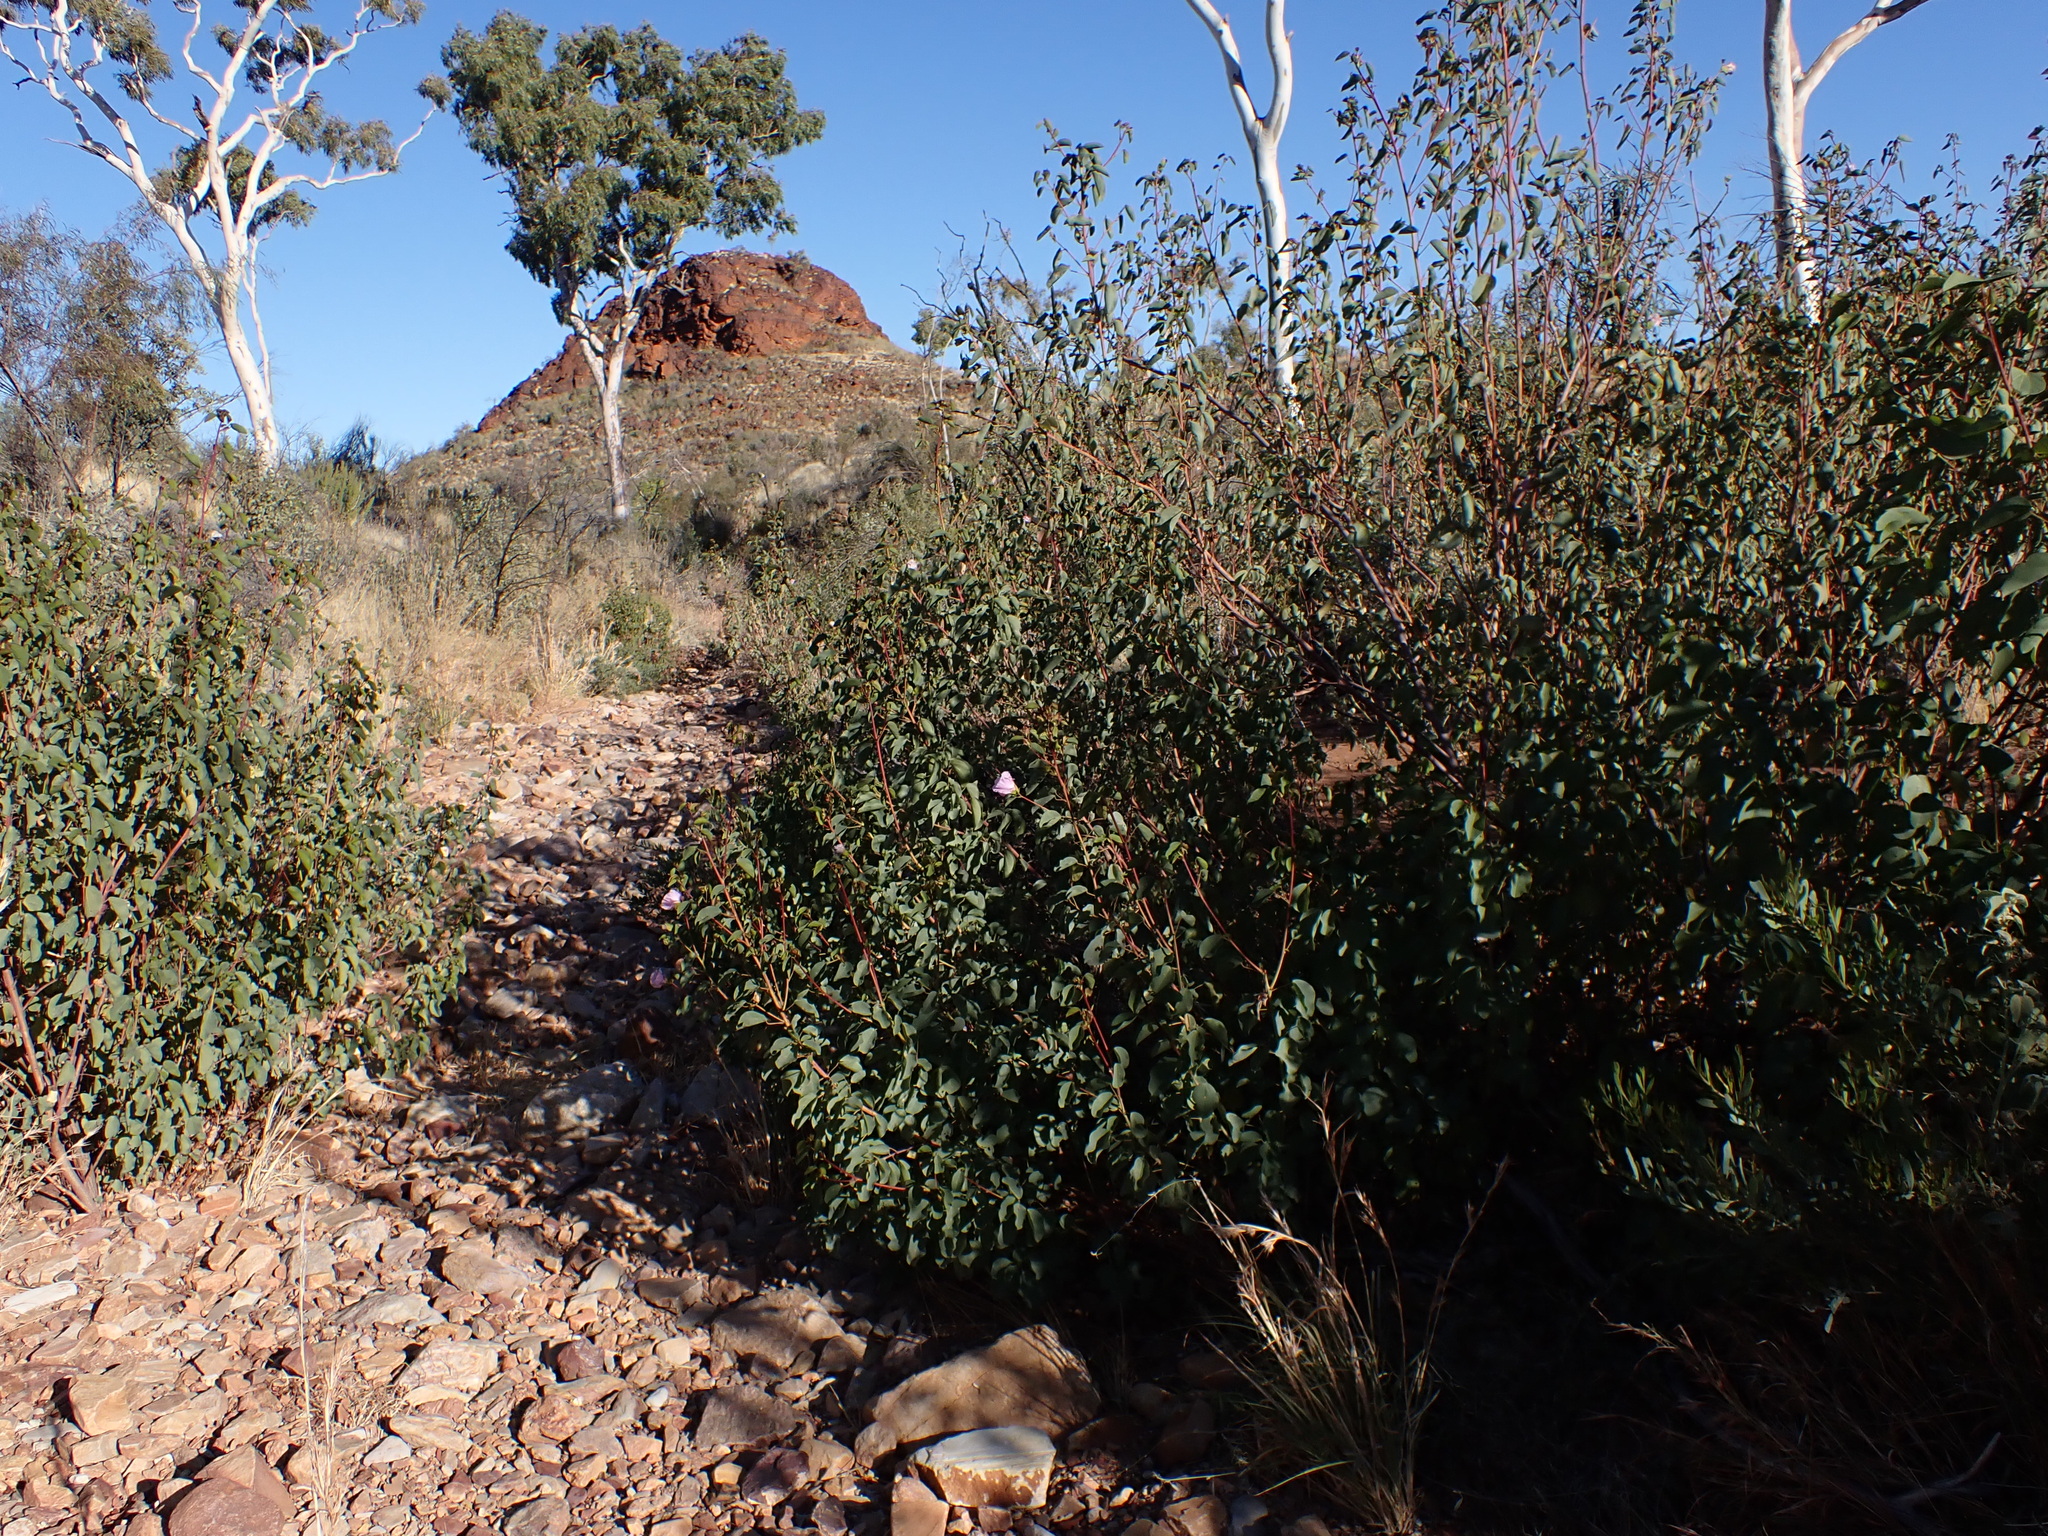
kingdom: Plantae
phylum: Tracheophyta
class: Magnoliopsida
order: Malvales
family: Malvaceae
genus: Gossypium
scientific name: Gossypium sturtianum
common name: Sturt's desert-rose
